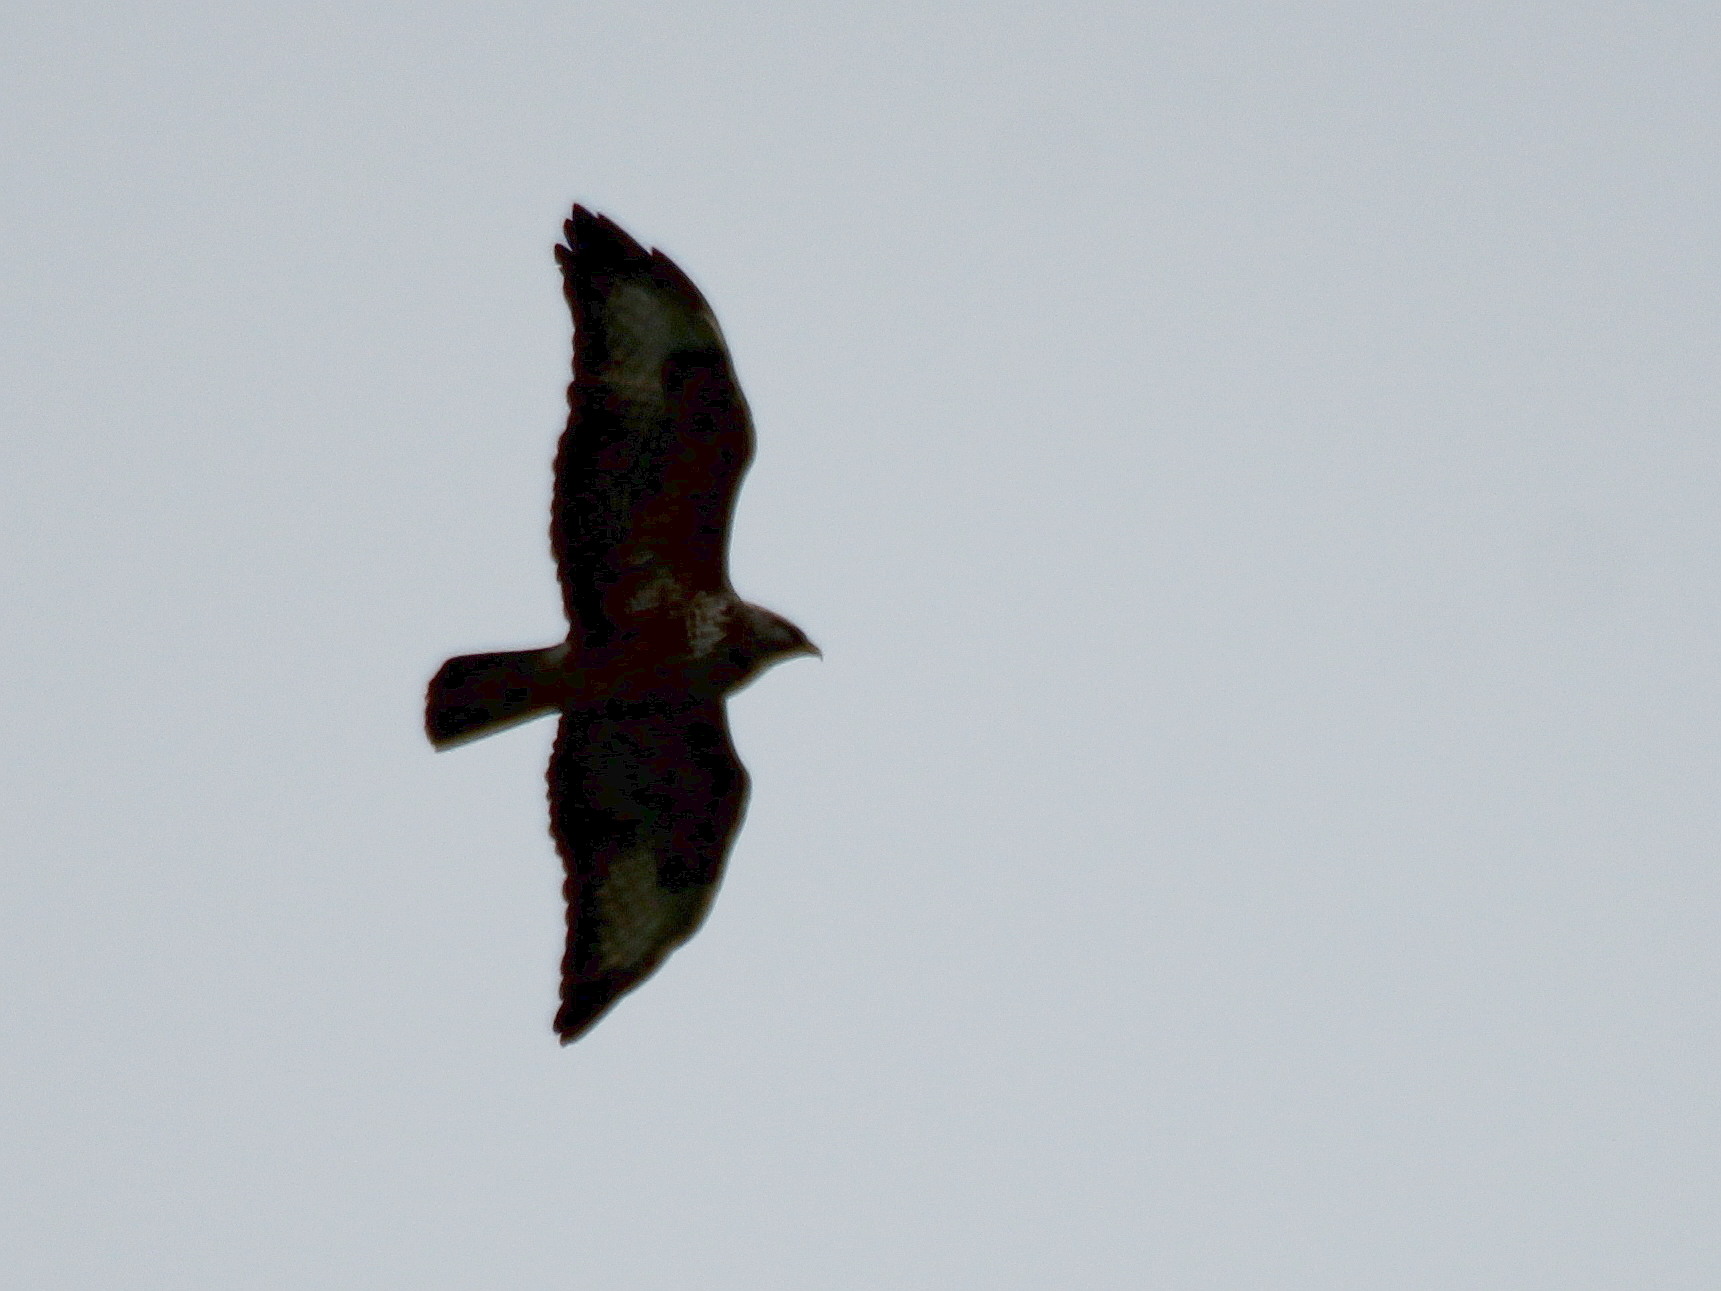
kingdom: Animalia
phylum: Chordata
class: Aves
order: Accipitriformes
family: Accipitridae
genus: Buteo
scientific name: Buteo buteo
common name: Common buzzard
